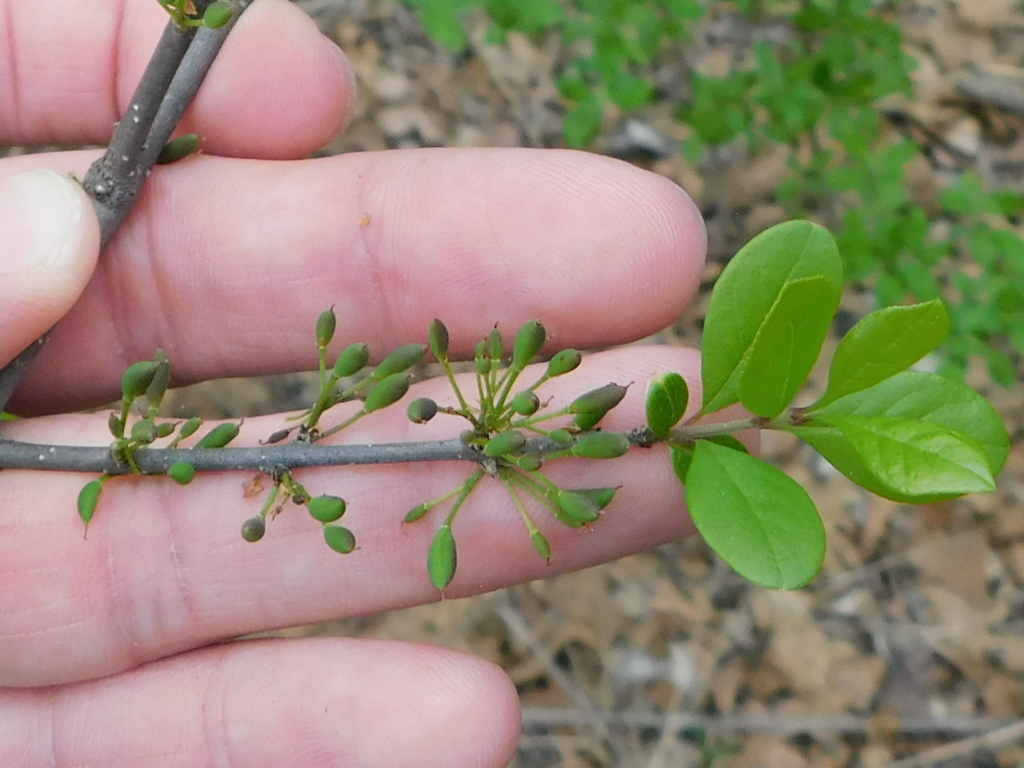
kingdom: Plantae
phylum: Tracheophyta
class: Magnoliopsida
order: Lamiales
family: Oleaceae
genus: Forestiera
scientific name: Forestiera pubescens
